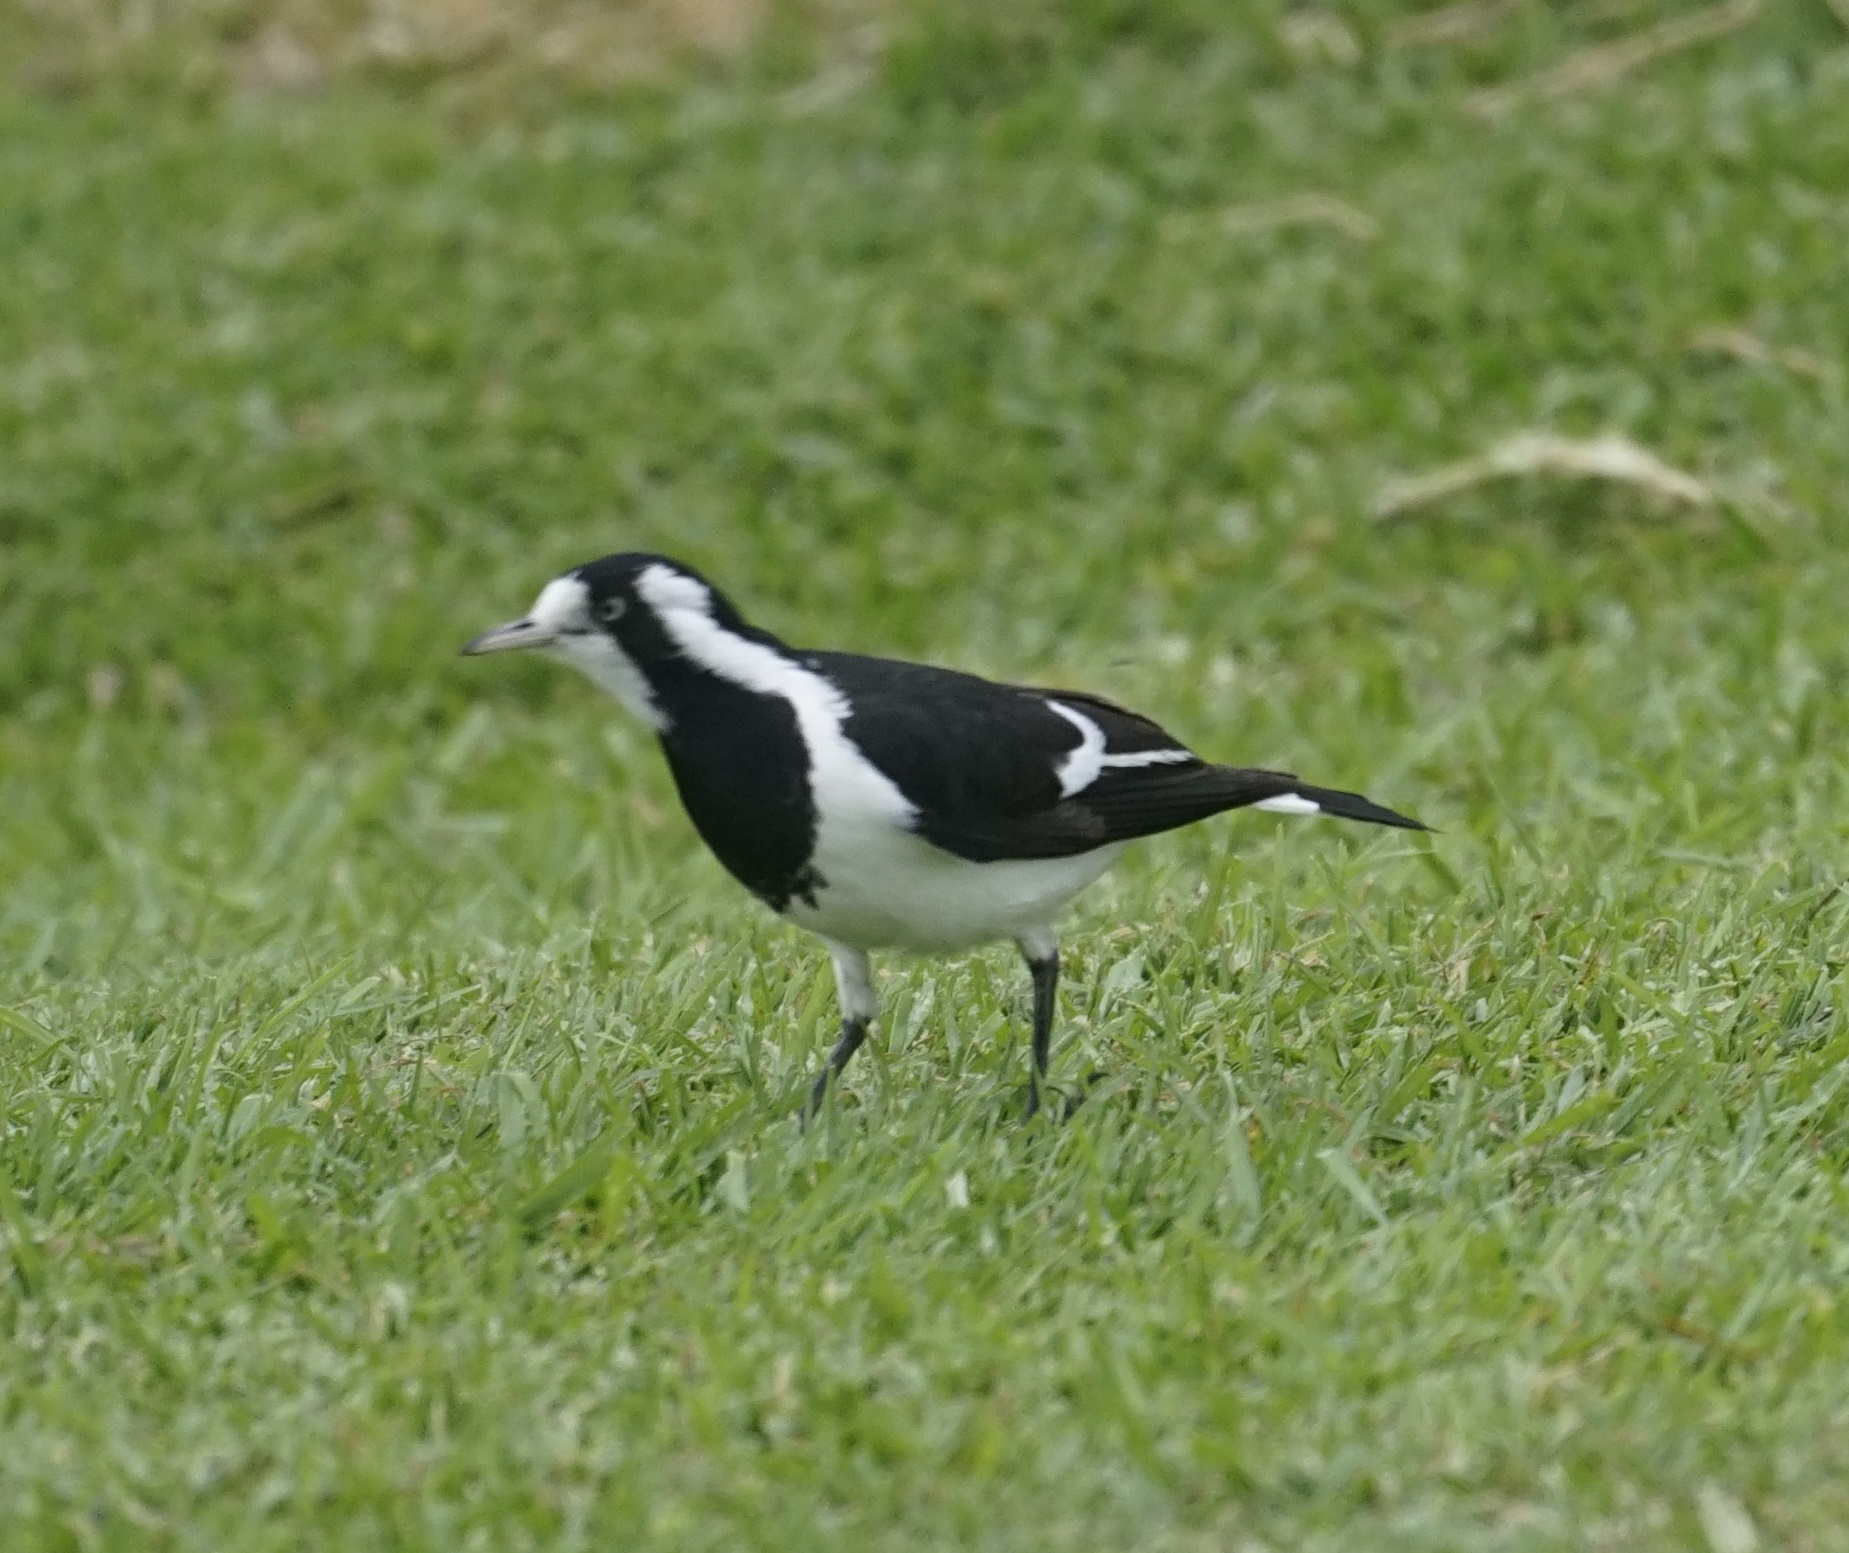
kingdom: Animalia
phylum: Chordata
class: Aves
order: Passeriformes
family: Monarchidae
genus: Grallina
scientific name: Grallina cyanoleuca
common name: Magpie-lark
